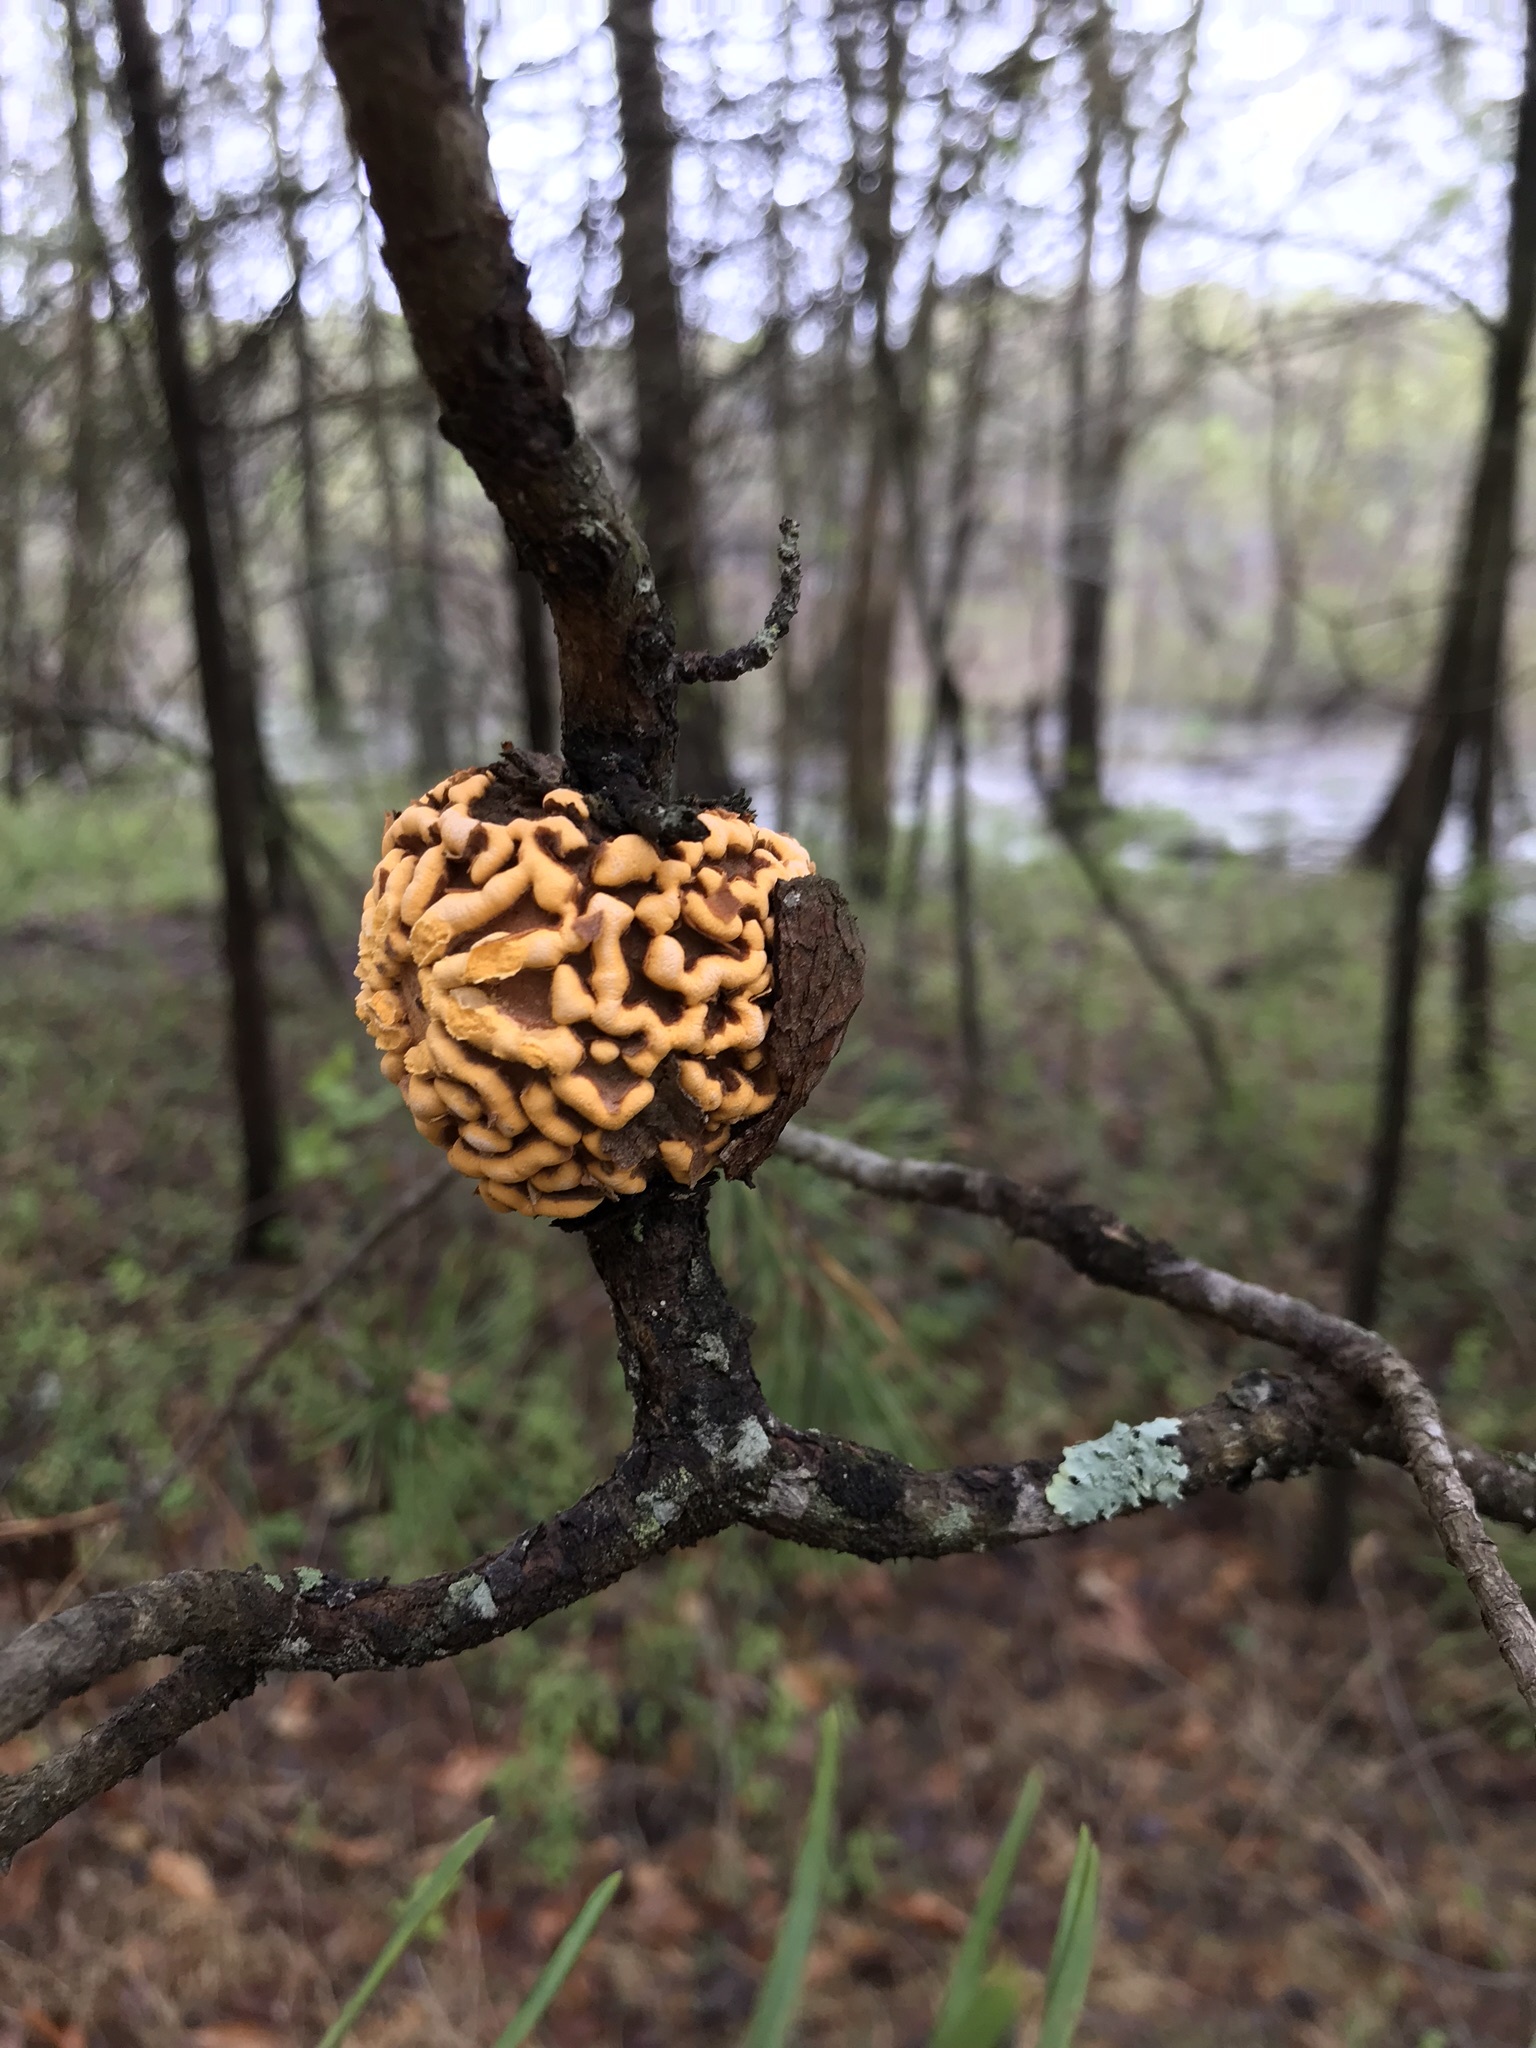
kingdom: Fungi
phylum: Basidiomycota
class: Pucciniomycetes
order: Pucciniales
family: Cronartiaceae
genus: Cronartium
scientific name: Cronartium quercuum
